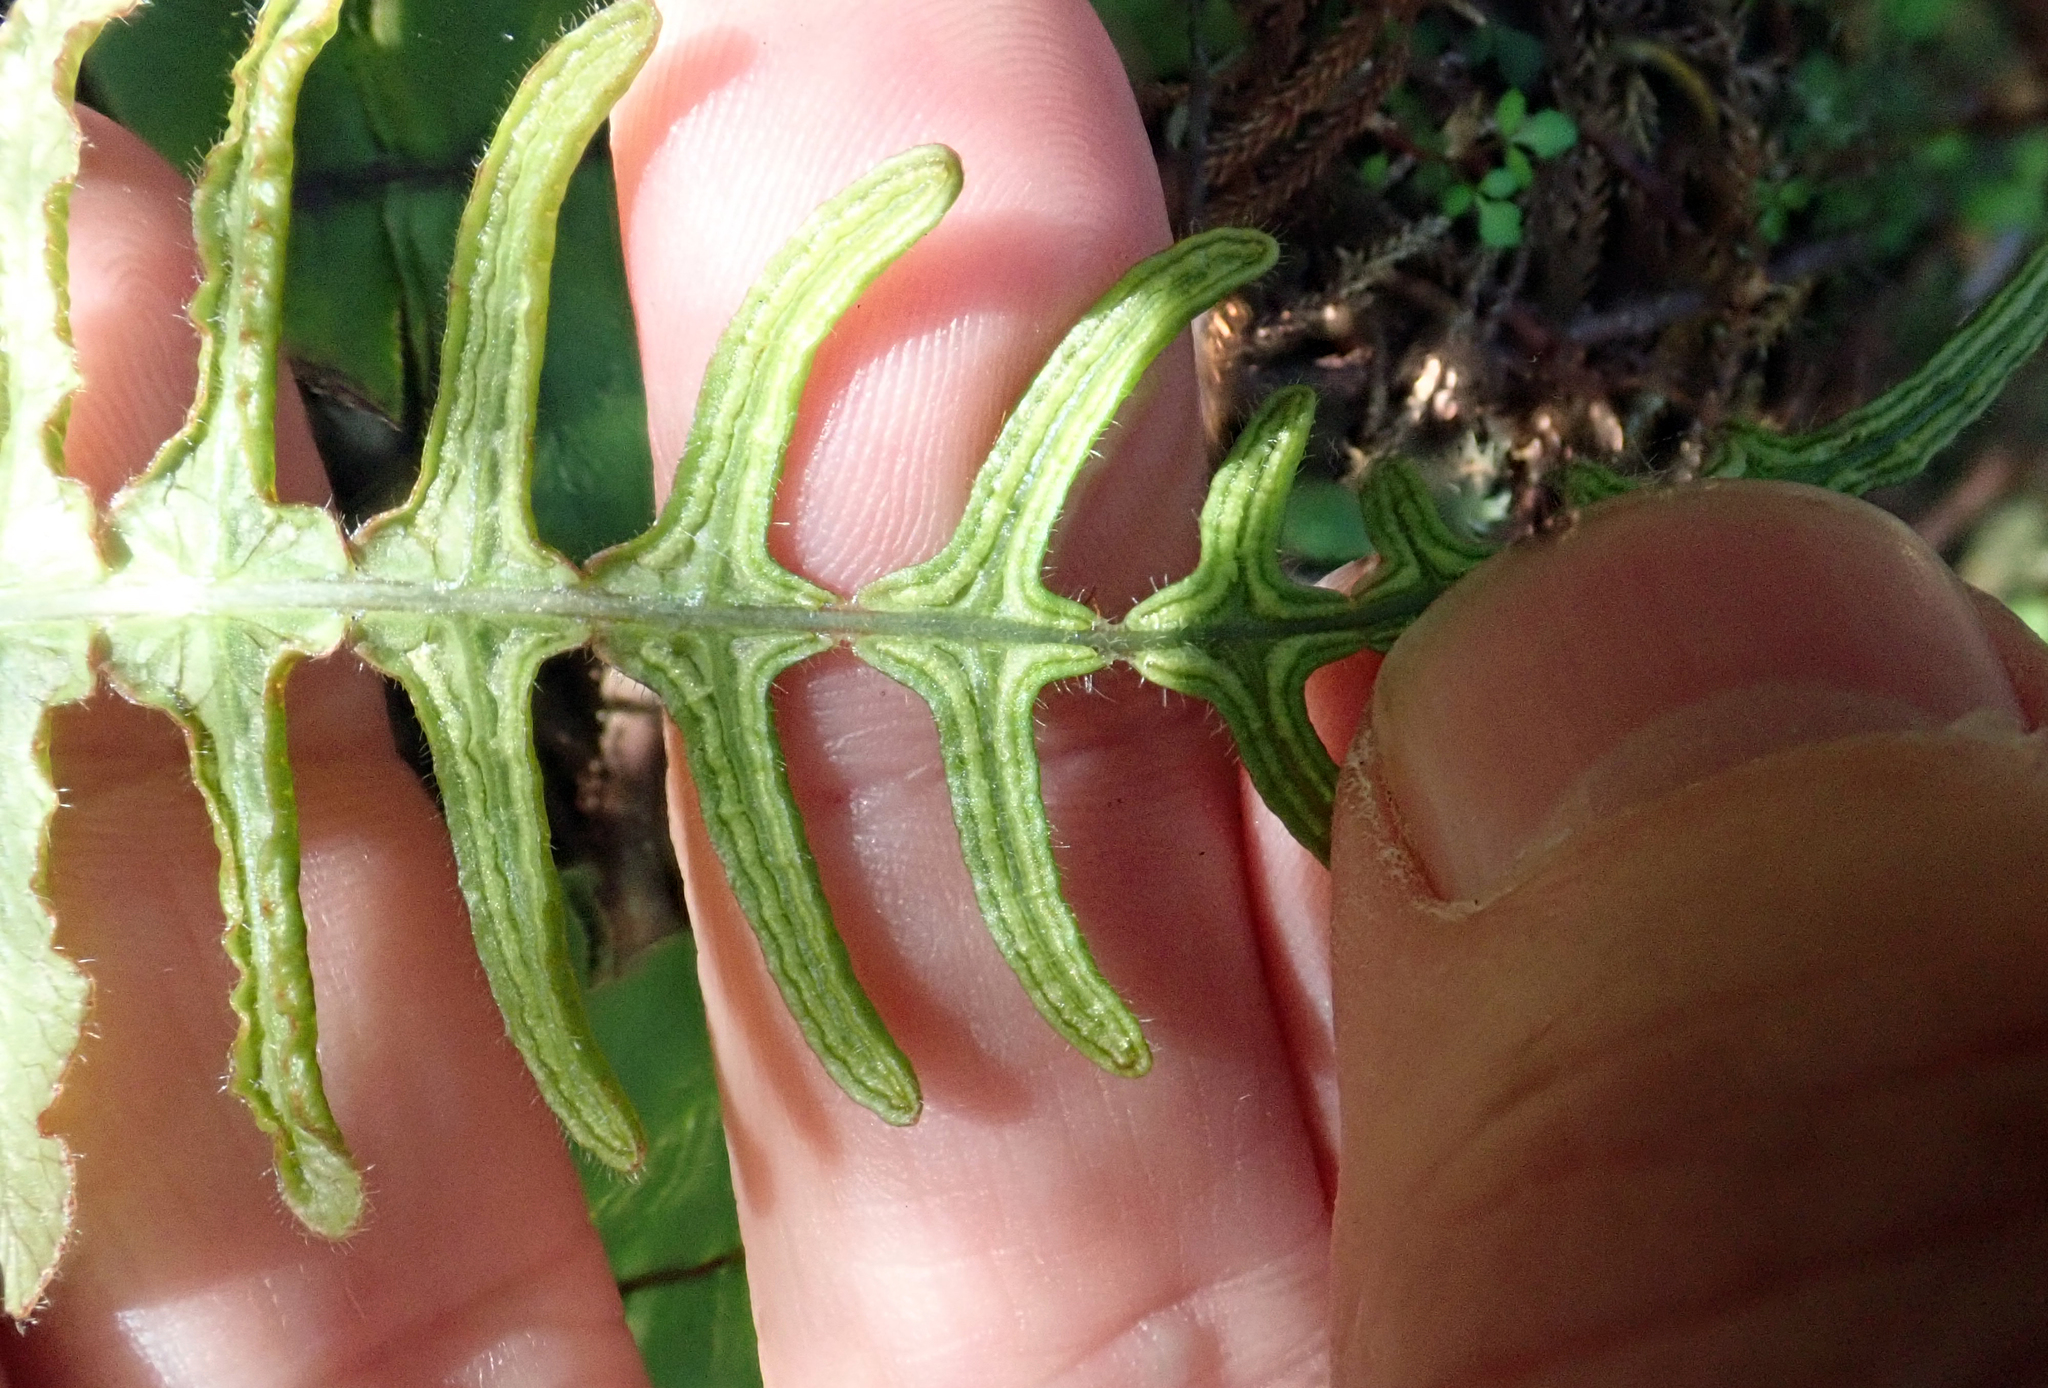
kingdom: Plantae
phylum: Tracheophyta
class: Polypodiopsida
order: Polypodiales
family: Blechnaceae
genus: Cranfillia
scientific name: Cranfillia deltoides
